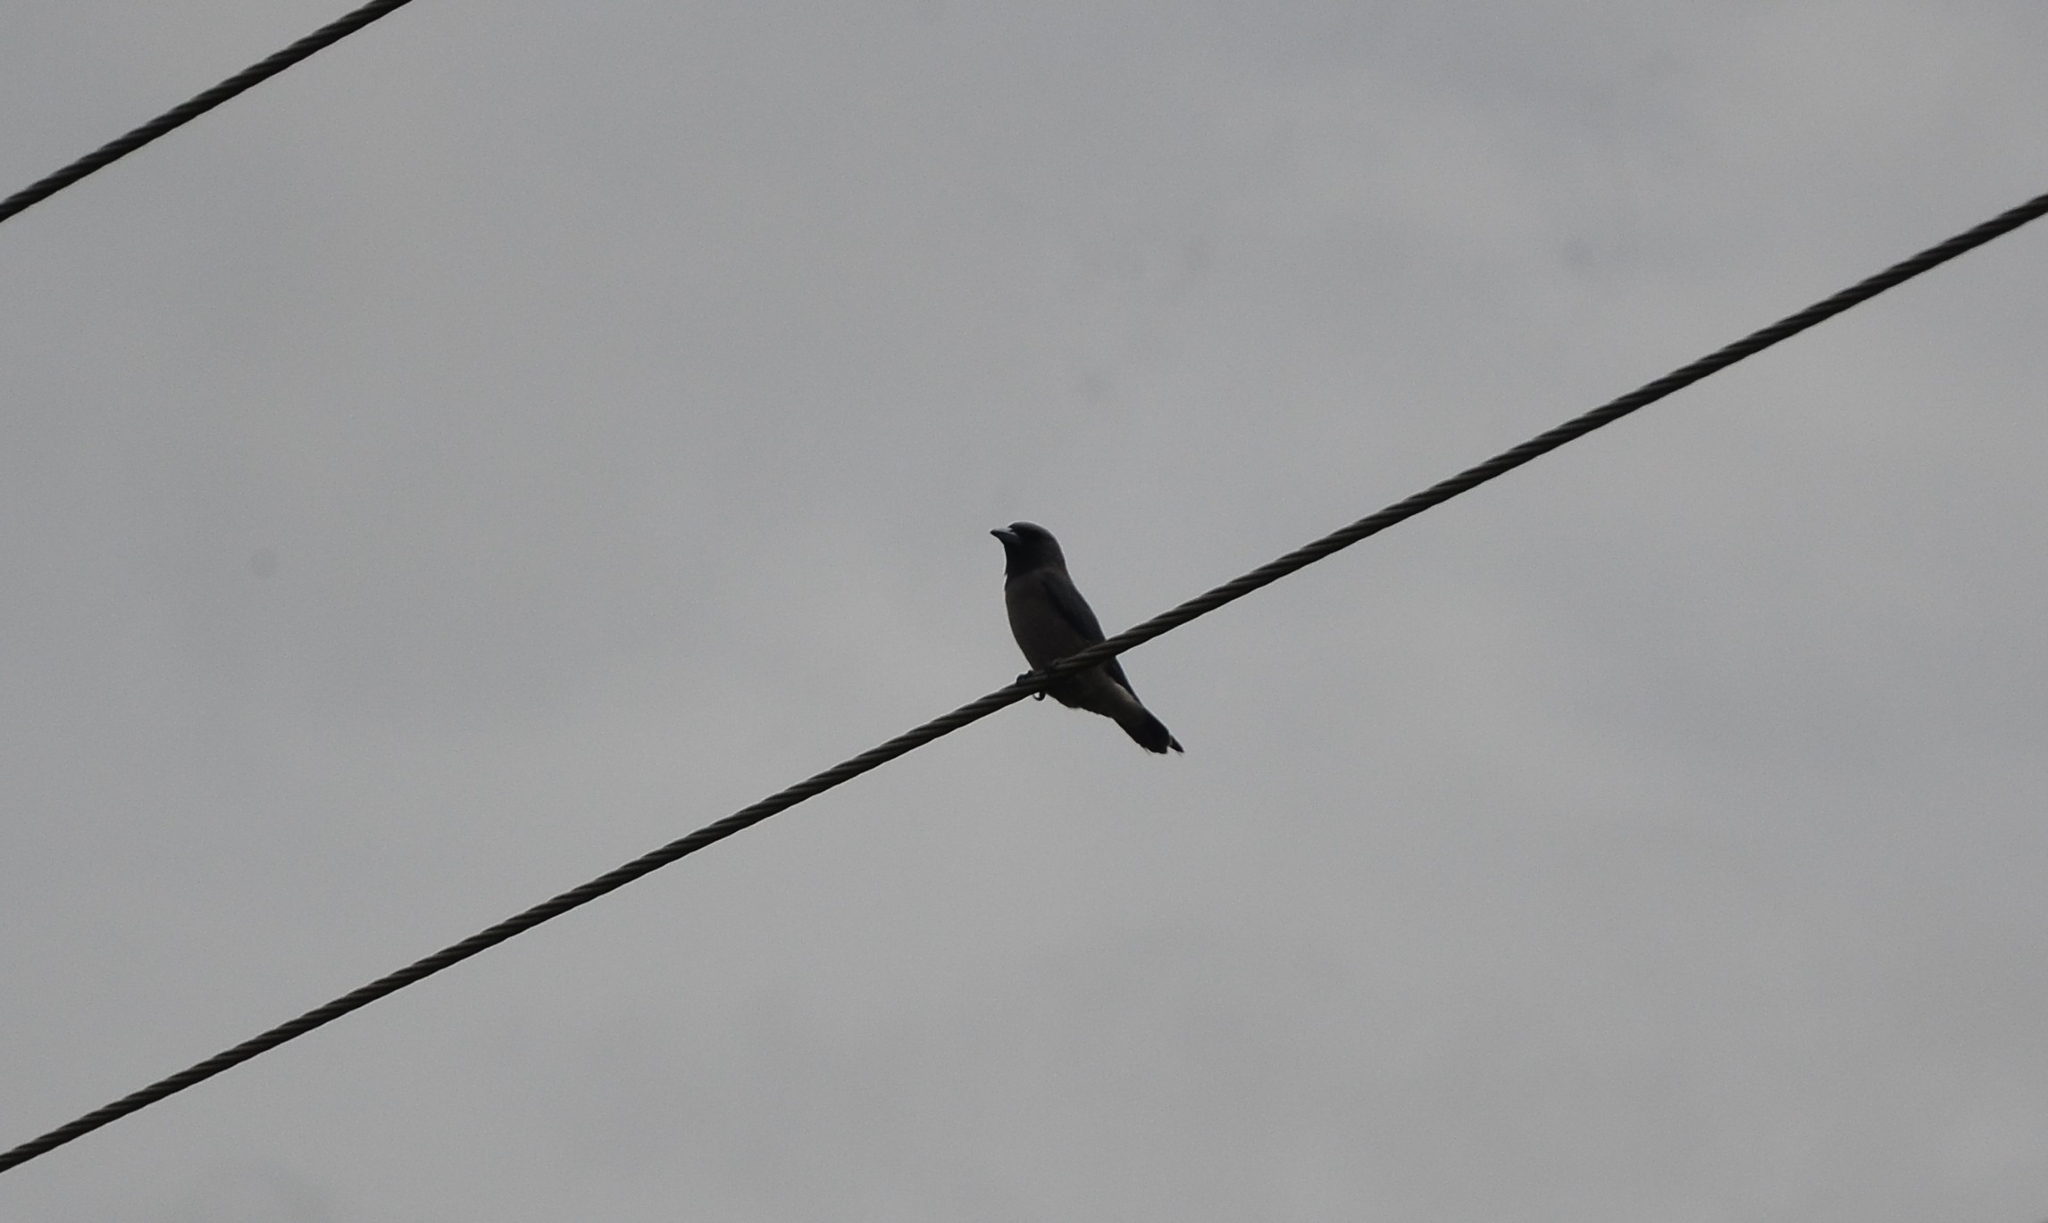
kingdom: Animalia
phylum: Chordata
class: Aves
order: Passeriformes
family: Artamidae
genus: Artamus
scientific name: Artamus fuscus
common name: Ashy woodswallow
